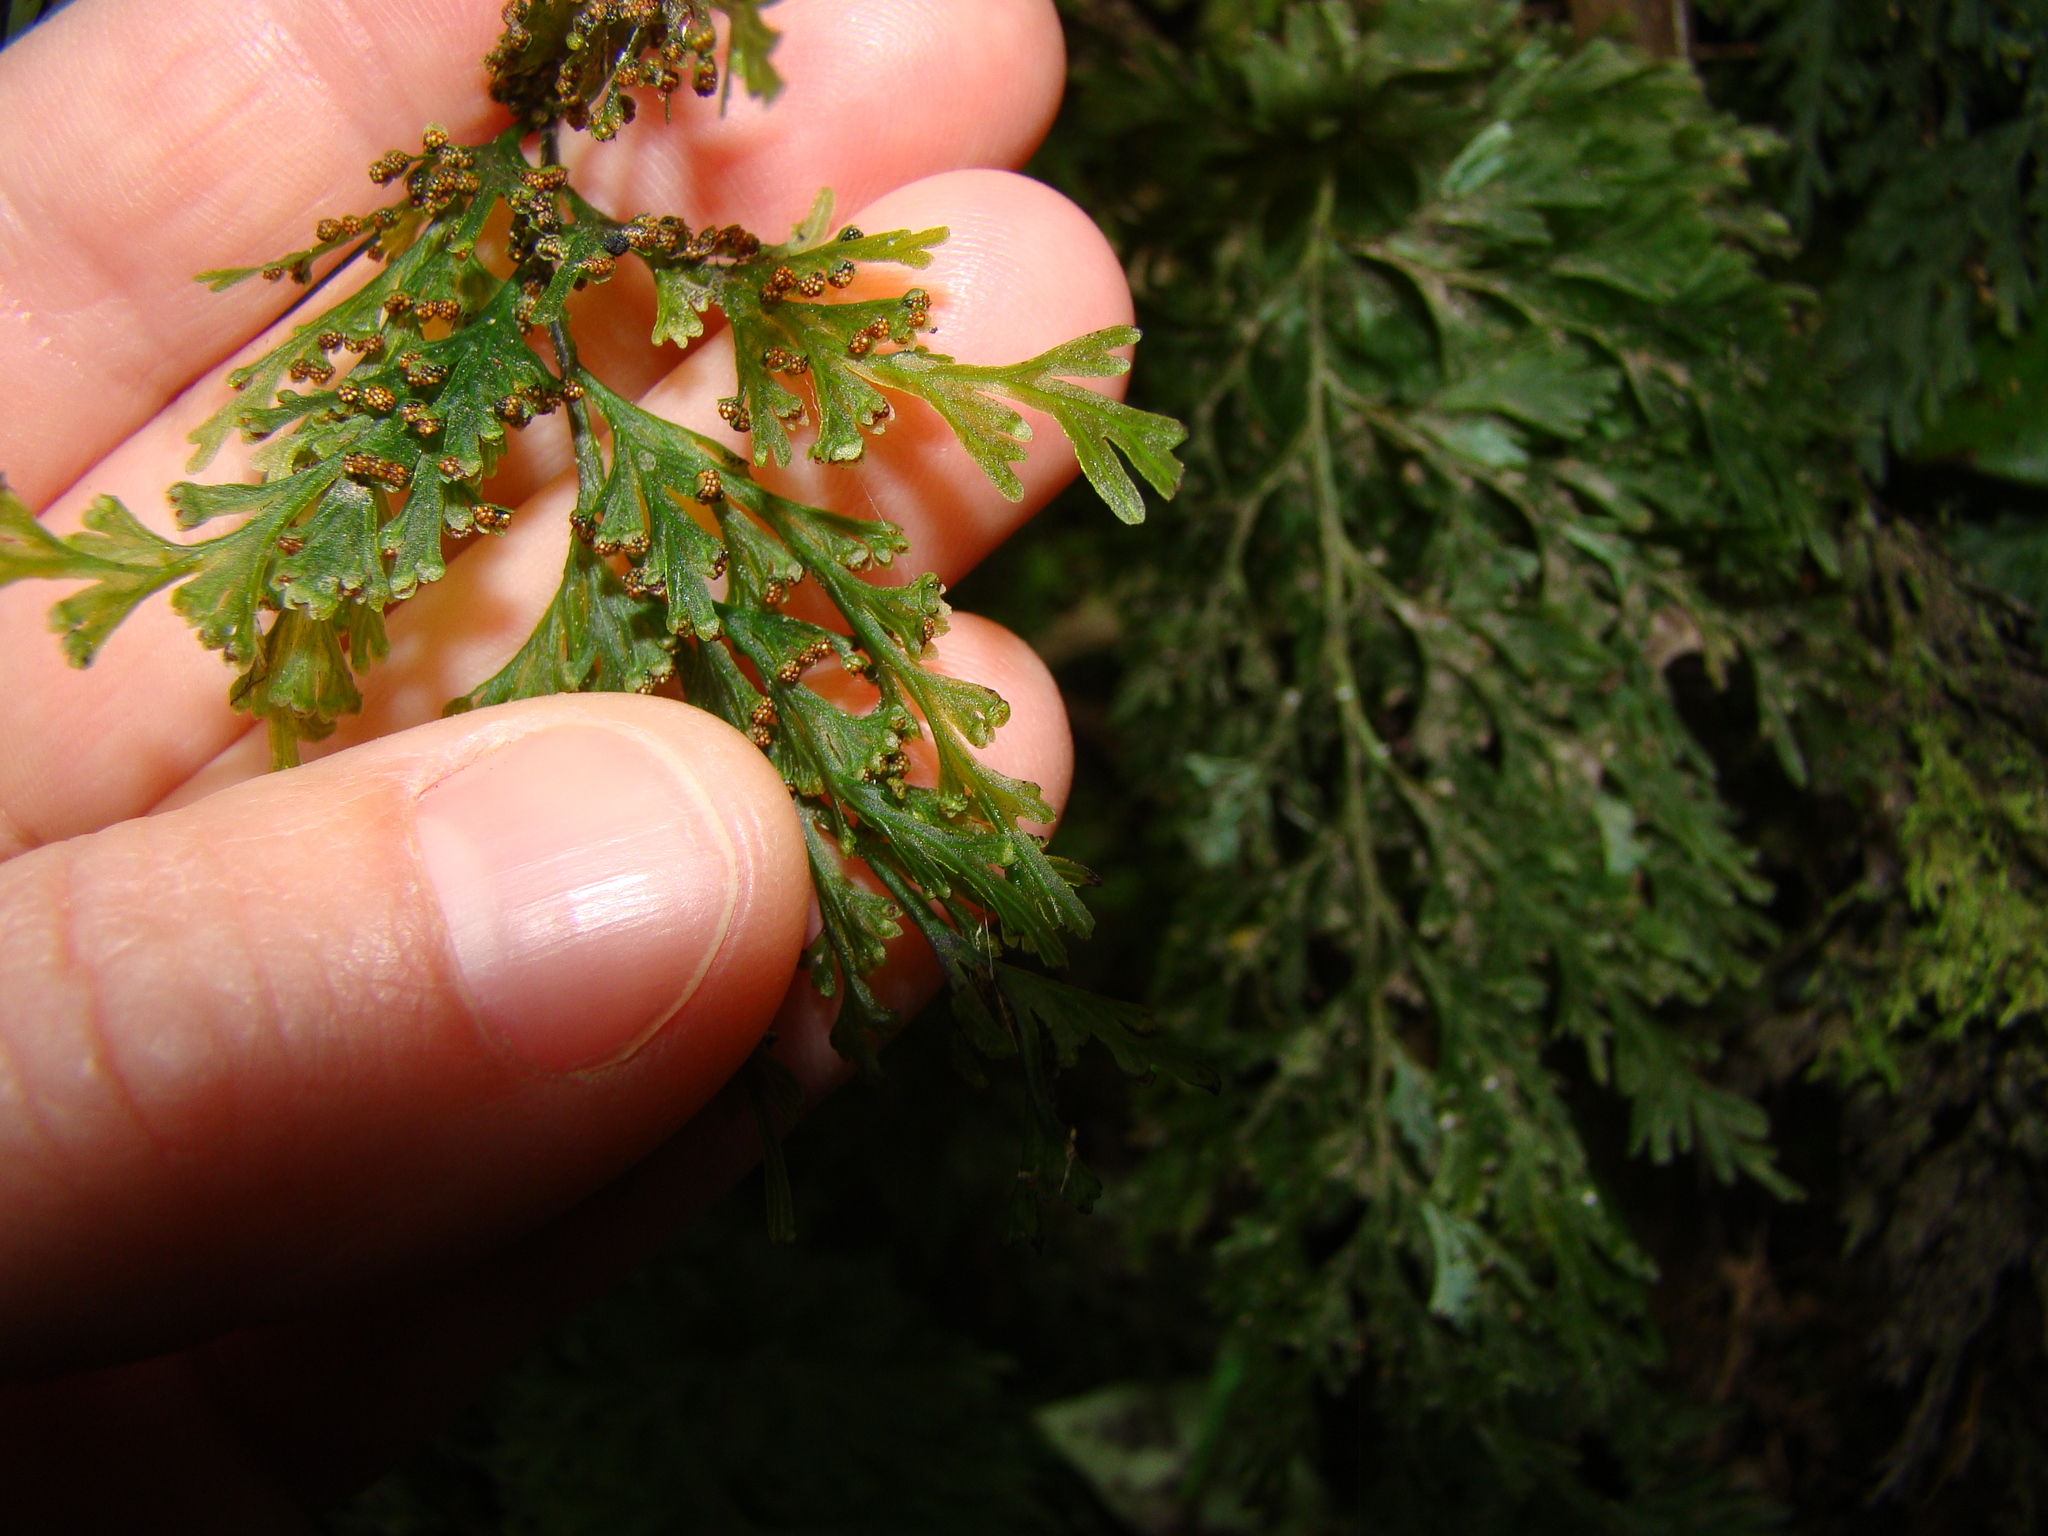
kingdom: Plantae
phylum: Tracheophyta
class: Polypodiopsida
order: Hymenophyllales
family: Hymenophyllaceae
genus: Hymenophyllum
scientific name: Hymenophyllum demissum
